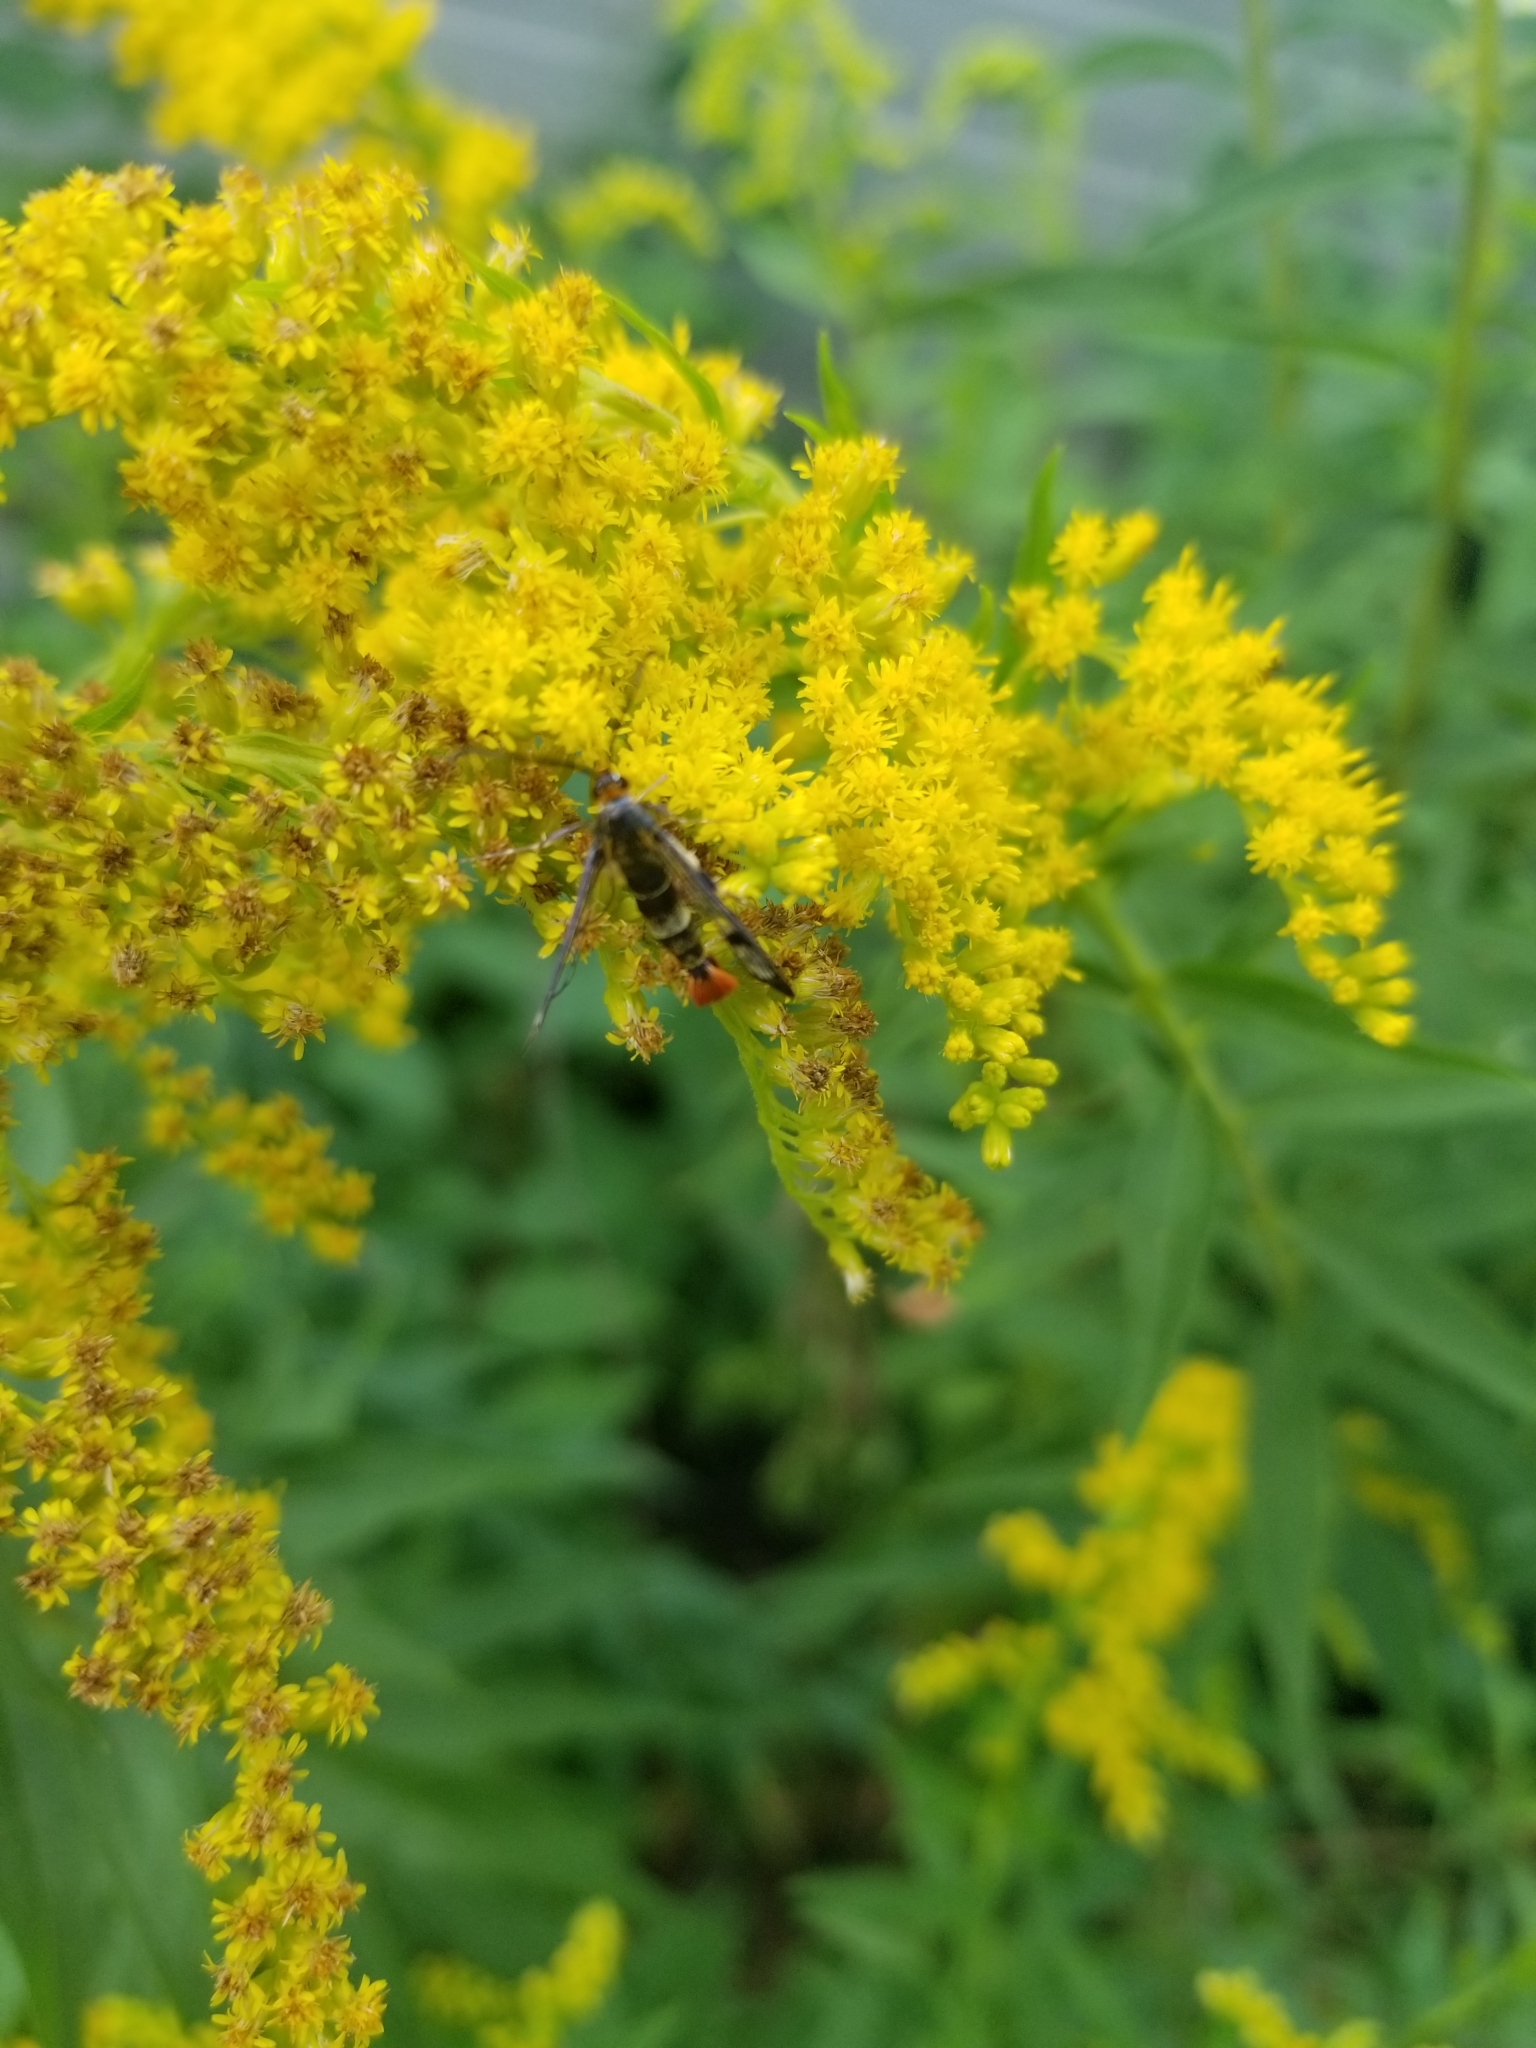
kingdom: Animalia
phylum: Arthropoda
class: Insecta
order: Lepidoptera
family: Sesiidae
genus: Synanthedon
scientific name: Synanthedon acerni
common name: Maple callus borer moth
